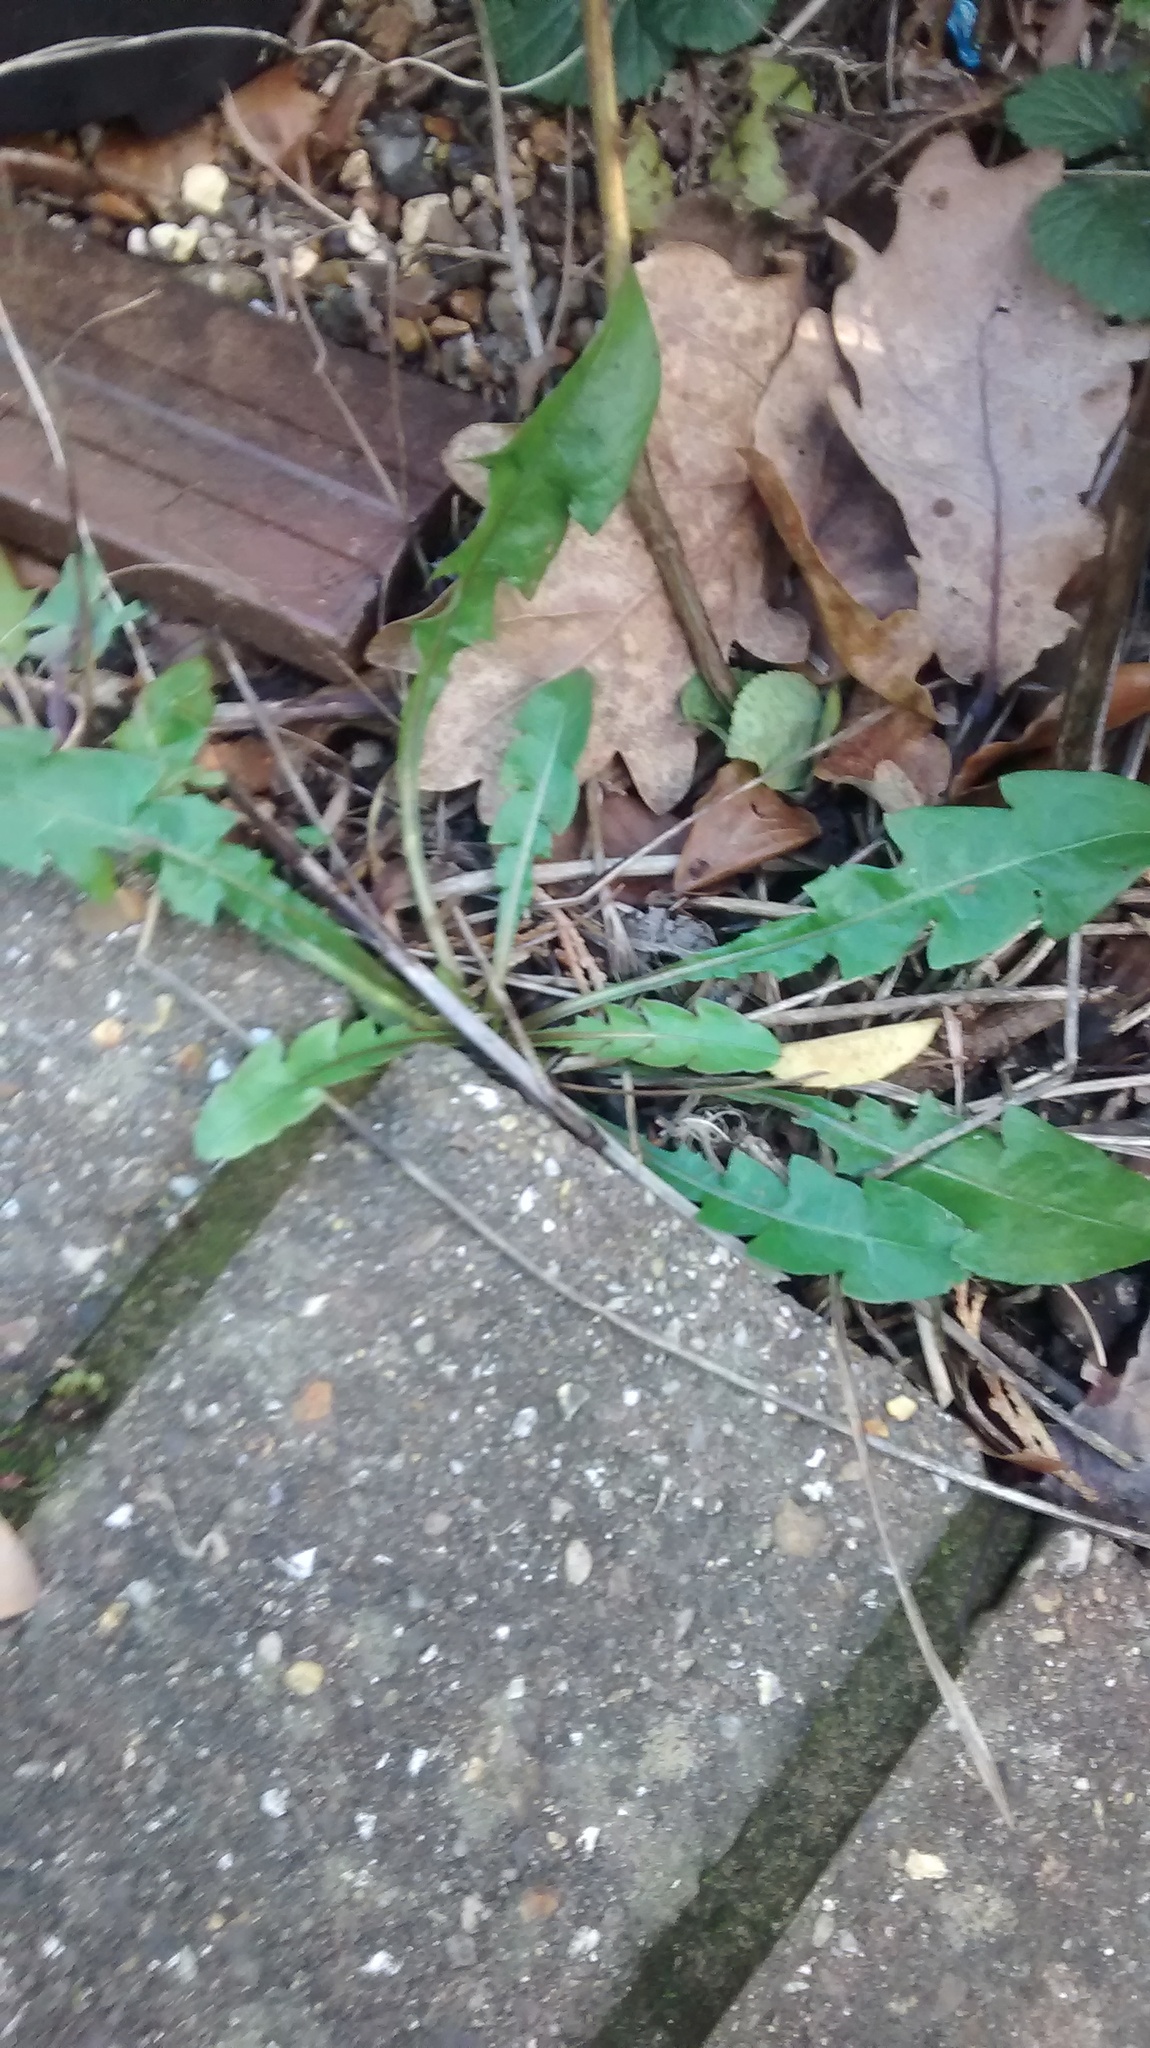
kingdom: Plantae
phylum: Tracheophyta
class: Magnoliopsida
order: Asterales
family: Asteraceae
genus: Taraxacum
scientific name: Taraxacum officinale
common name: Common dandelion
